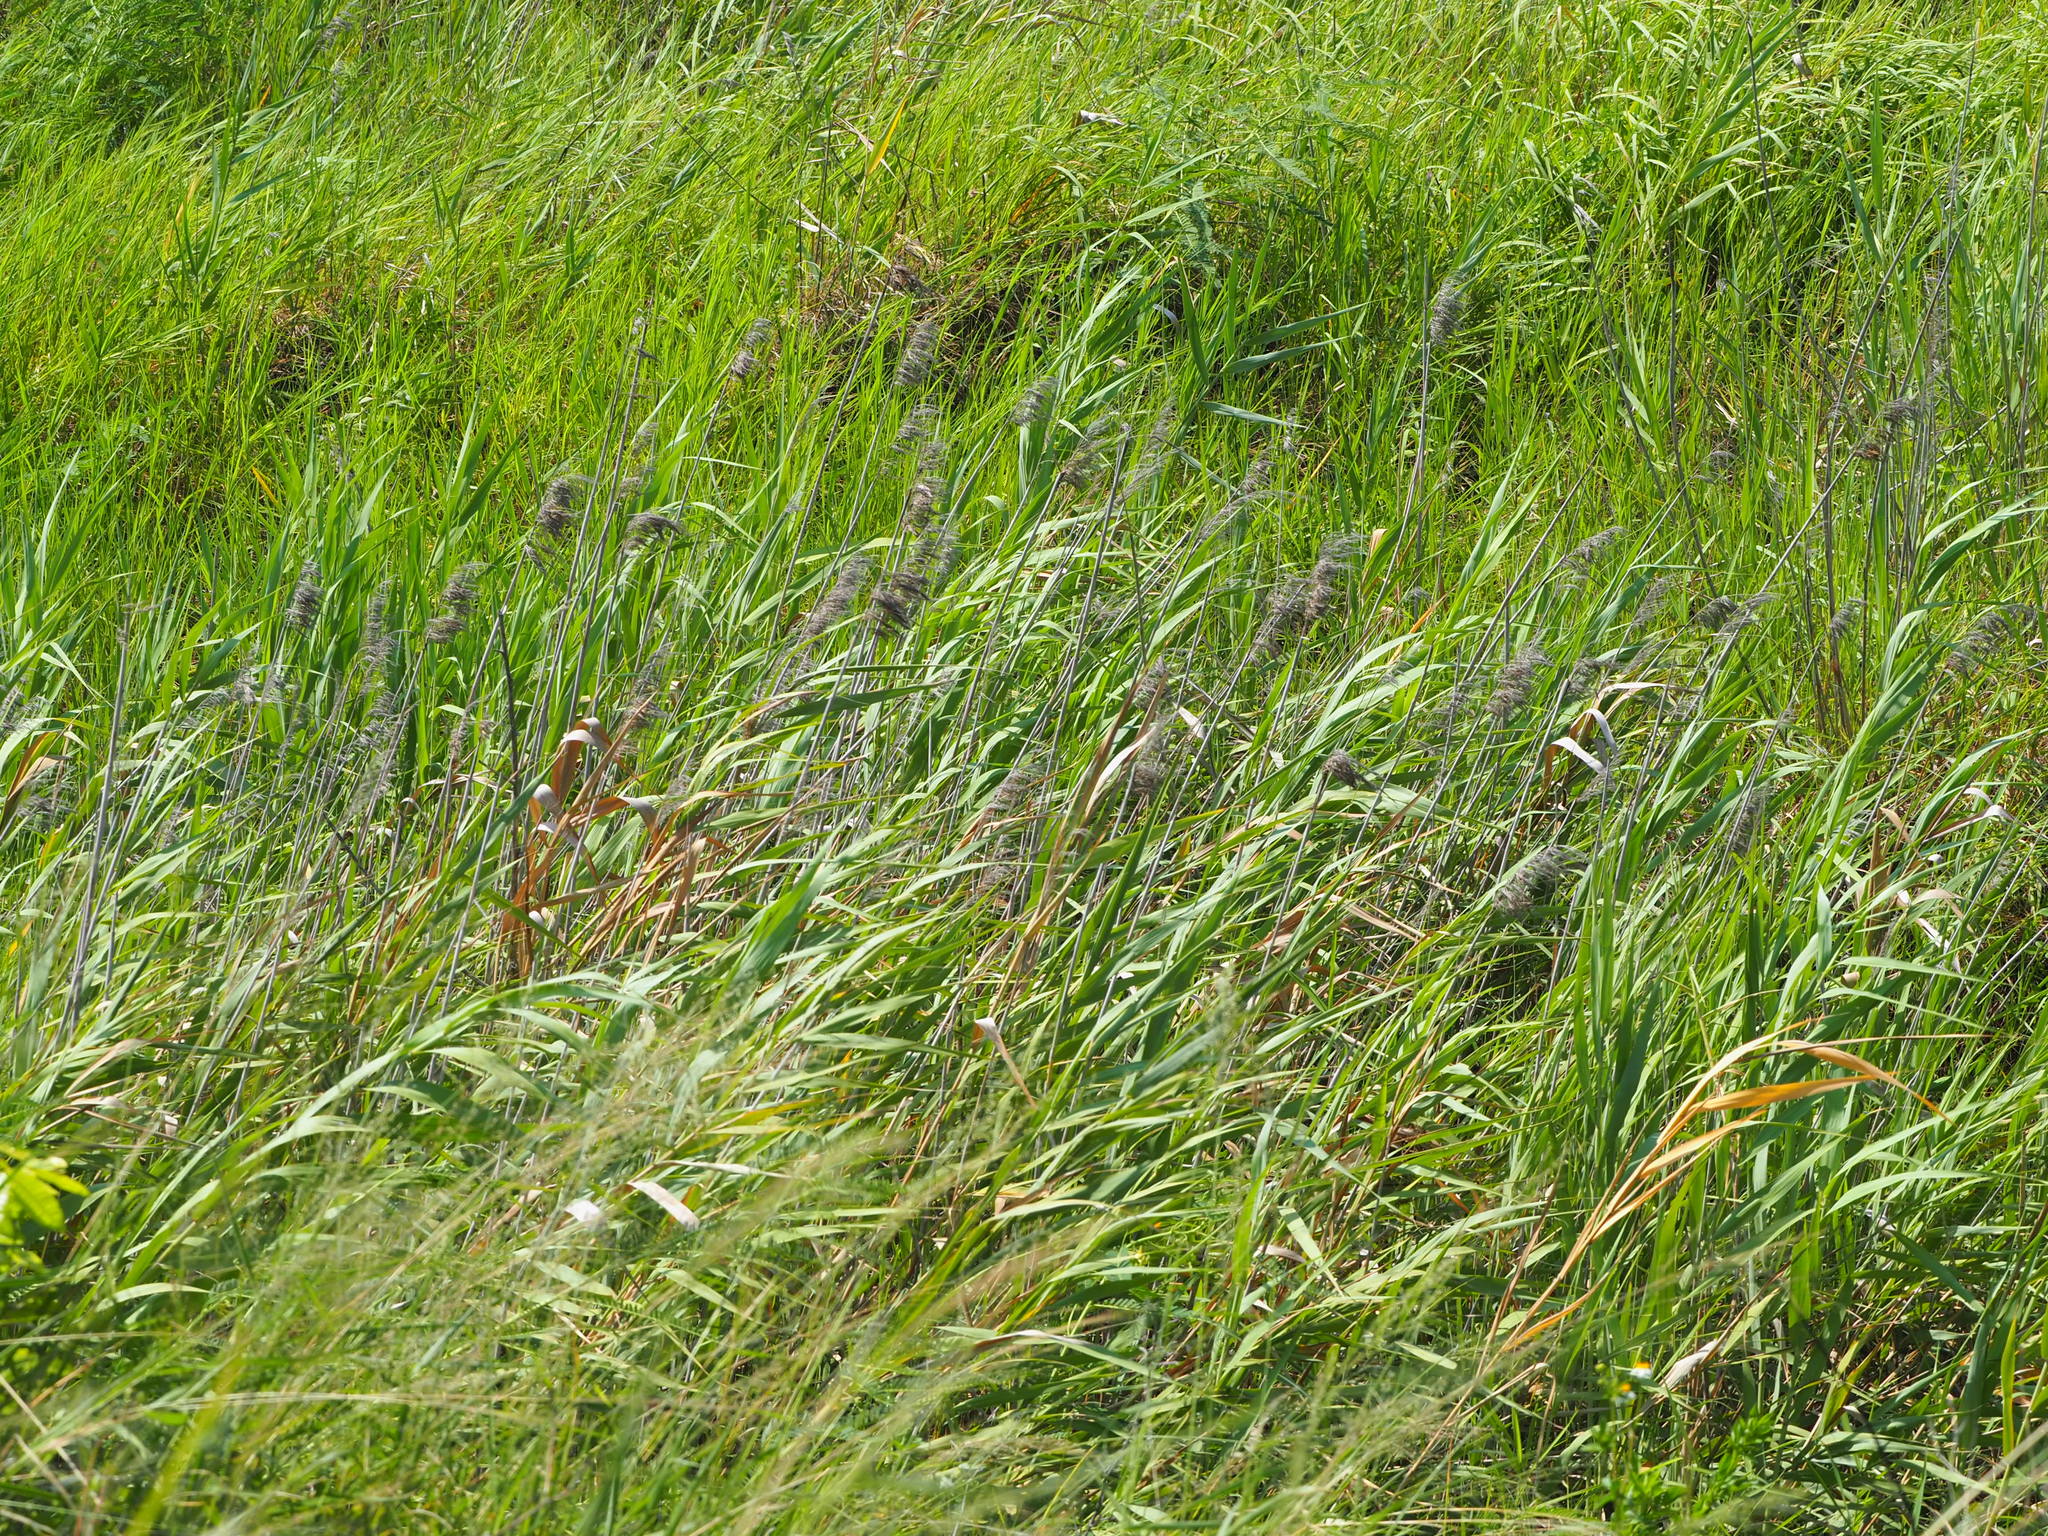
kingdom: Plantae
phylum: Tracheophyta
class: Liliopsida
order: Poales
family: Poaceae
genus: Phragmites
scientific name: Phragmites australis
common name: Common reed
